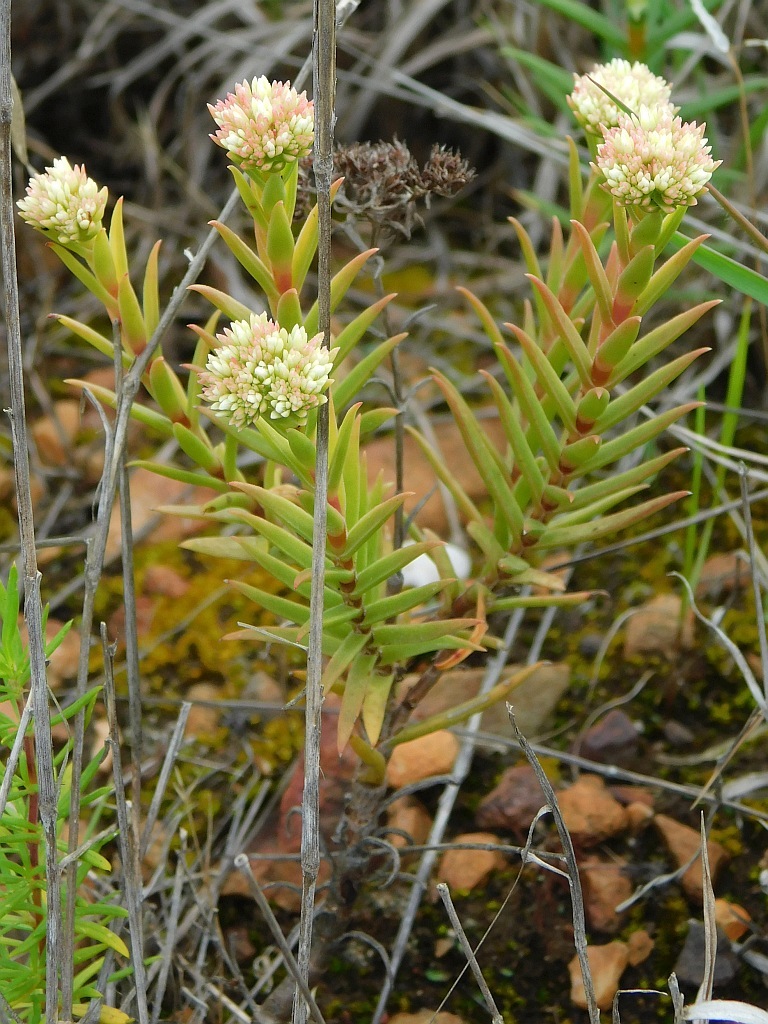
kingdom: Plantae
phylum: Tracheophyta
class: Magnoliopsida
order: Saxifragales
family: Crassulaceae
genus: Crassula
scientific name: Crassula subulata
